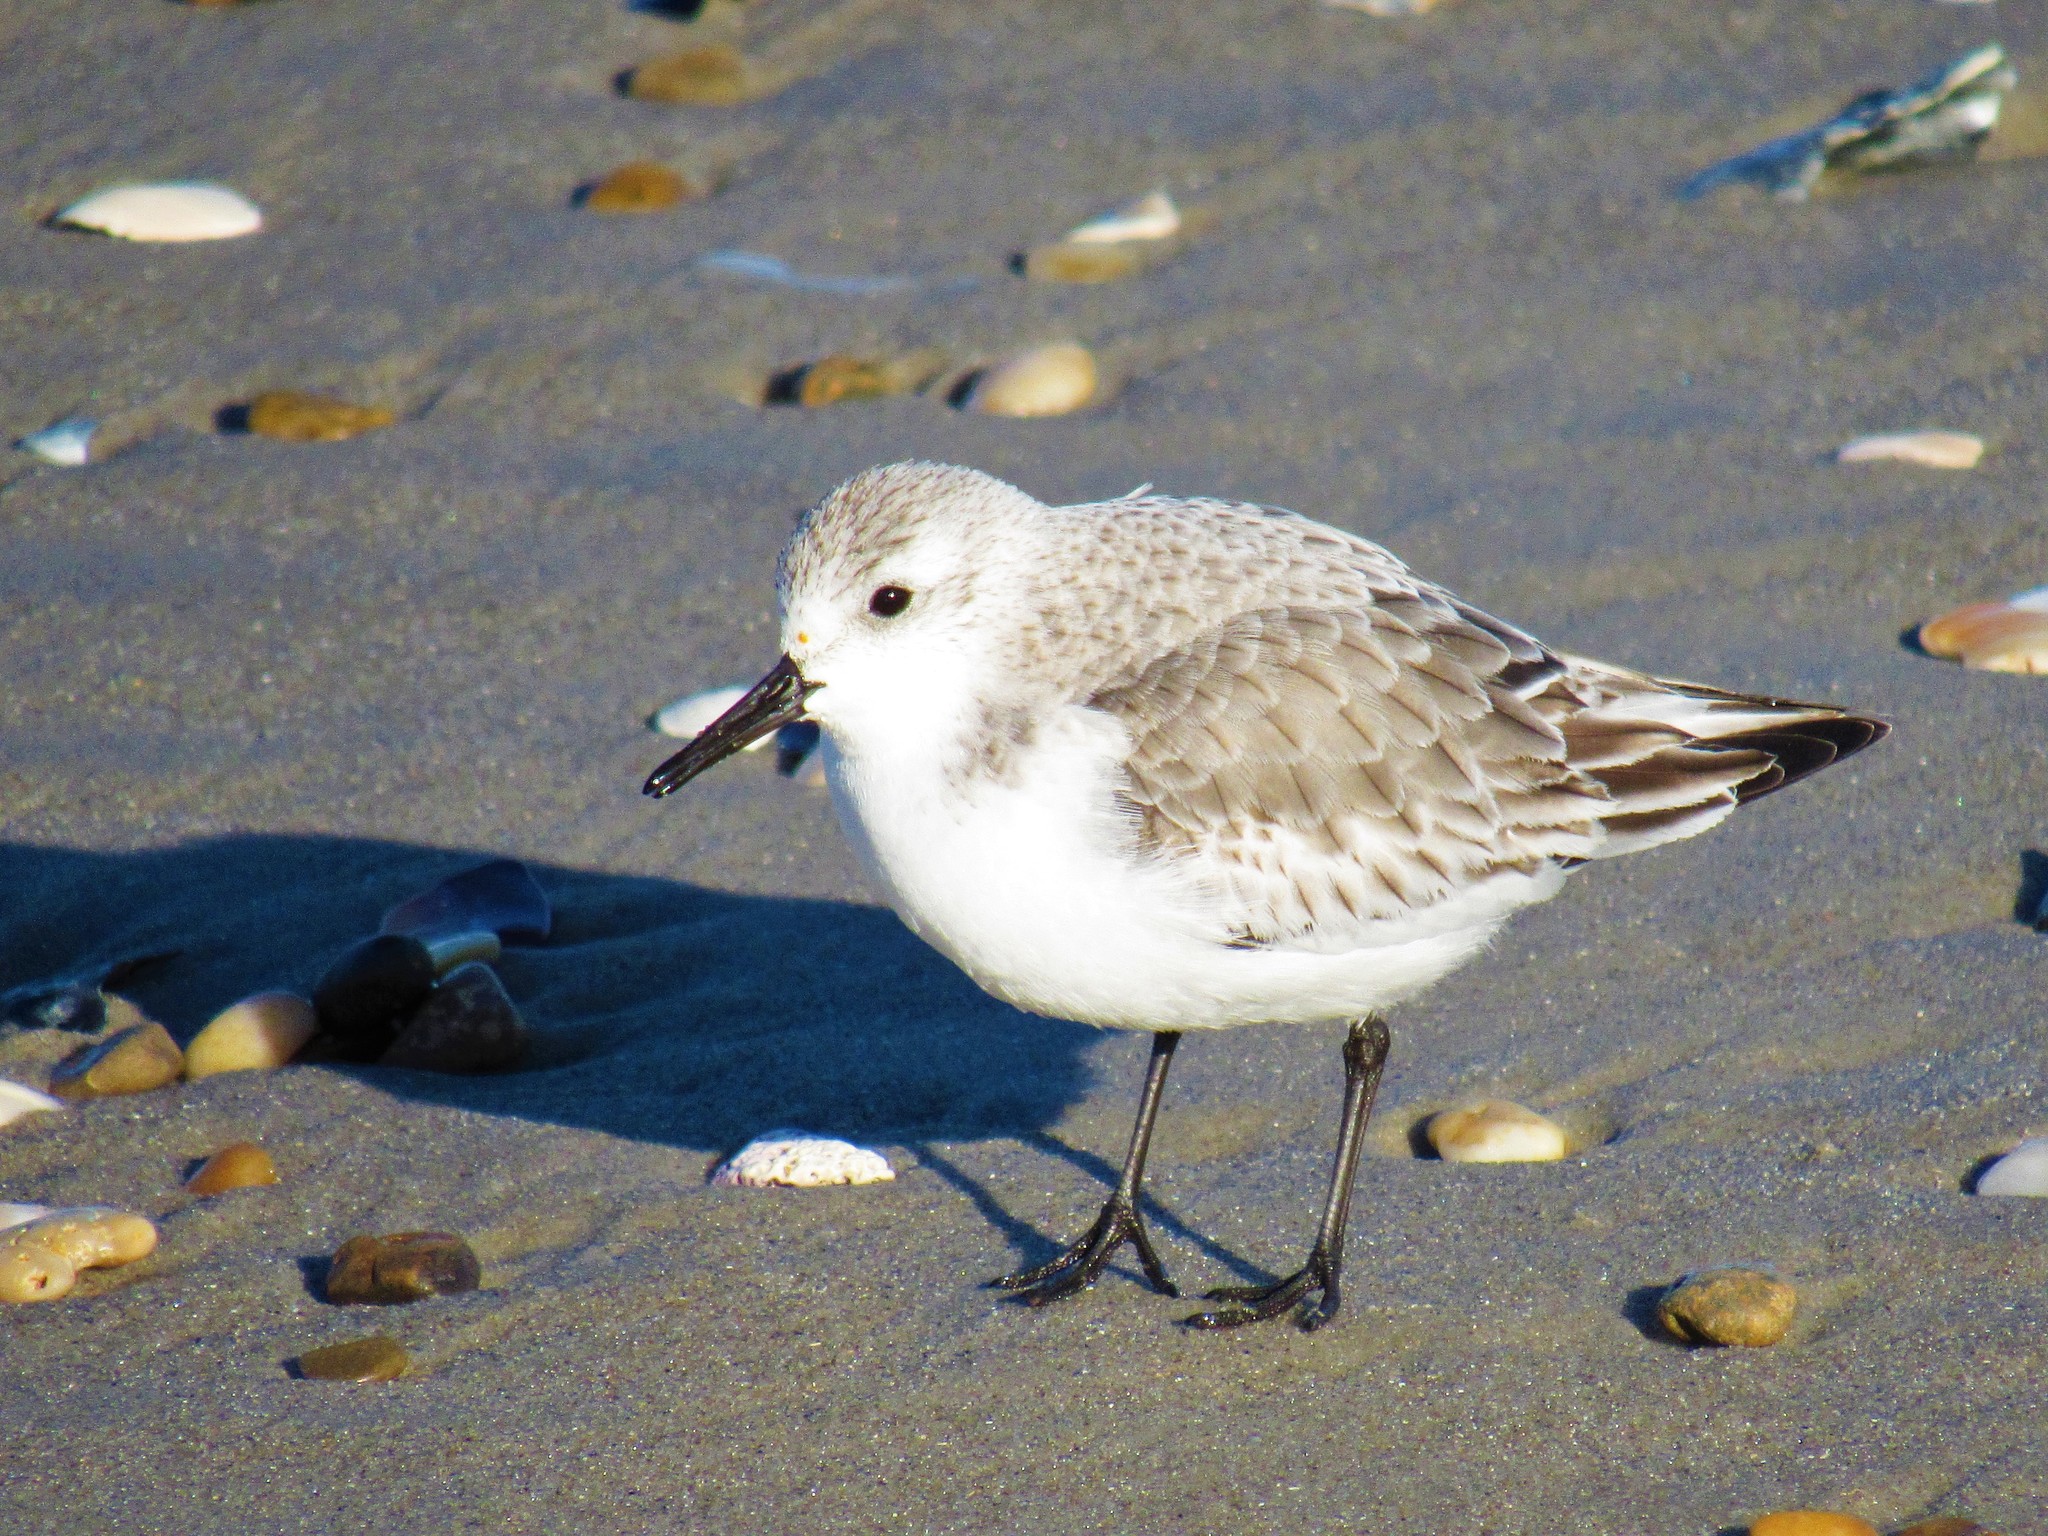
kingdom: Animalia
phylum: Chordata
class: Aves
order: Charadriiformes
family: Scolopacidae
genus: Calidris
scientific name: Calidris alba
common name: Sanderling
